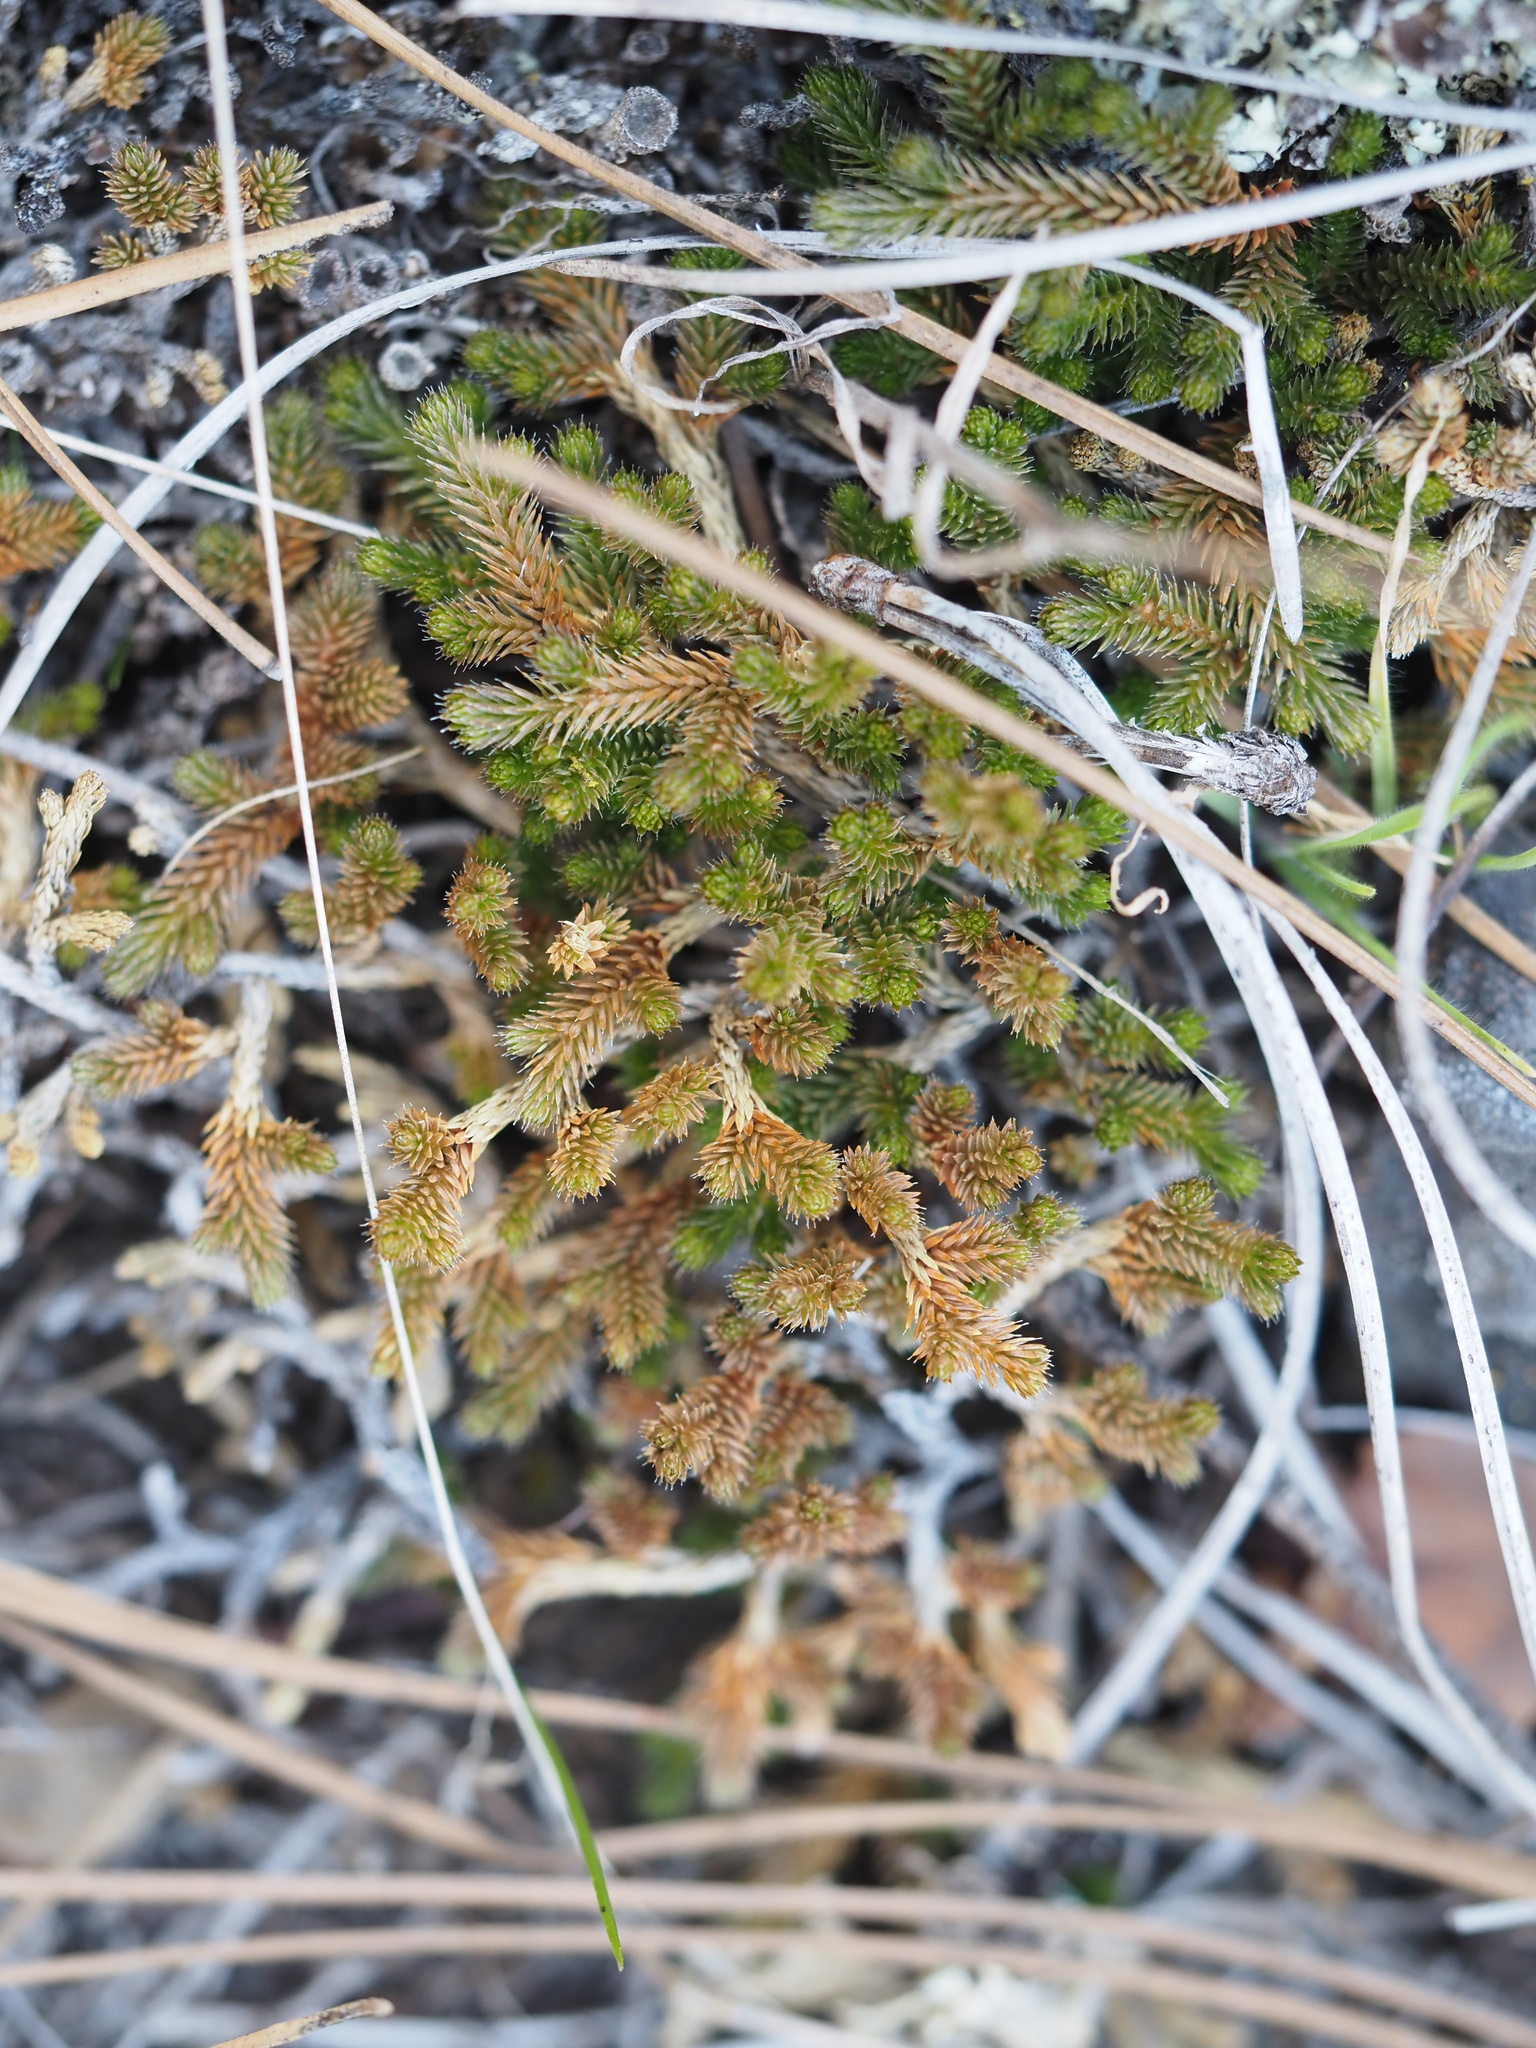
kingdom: Plantae
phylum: Tracheophyta
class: Lycopodiopsida
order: Selaginellales
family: Selaginellaceae
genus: Selaginella
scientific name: Selaginella wallacei
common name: Wallace's selaginella
